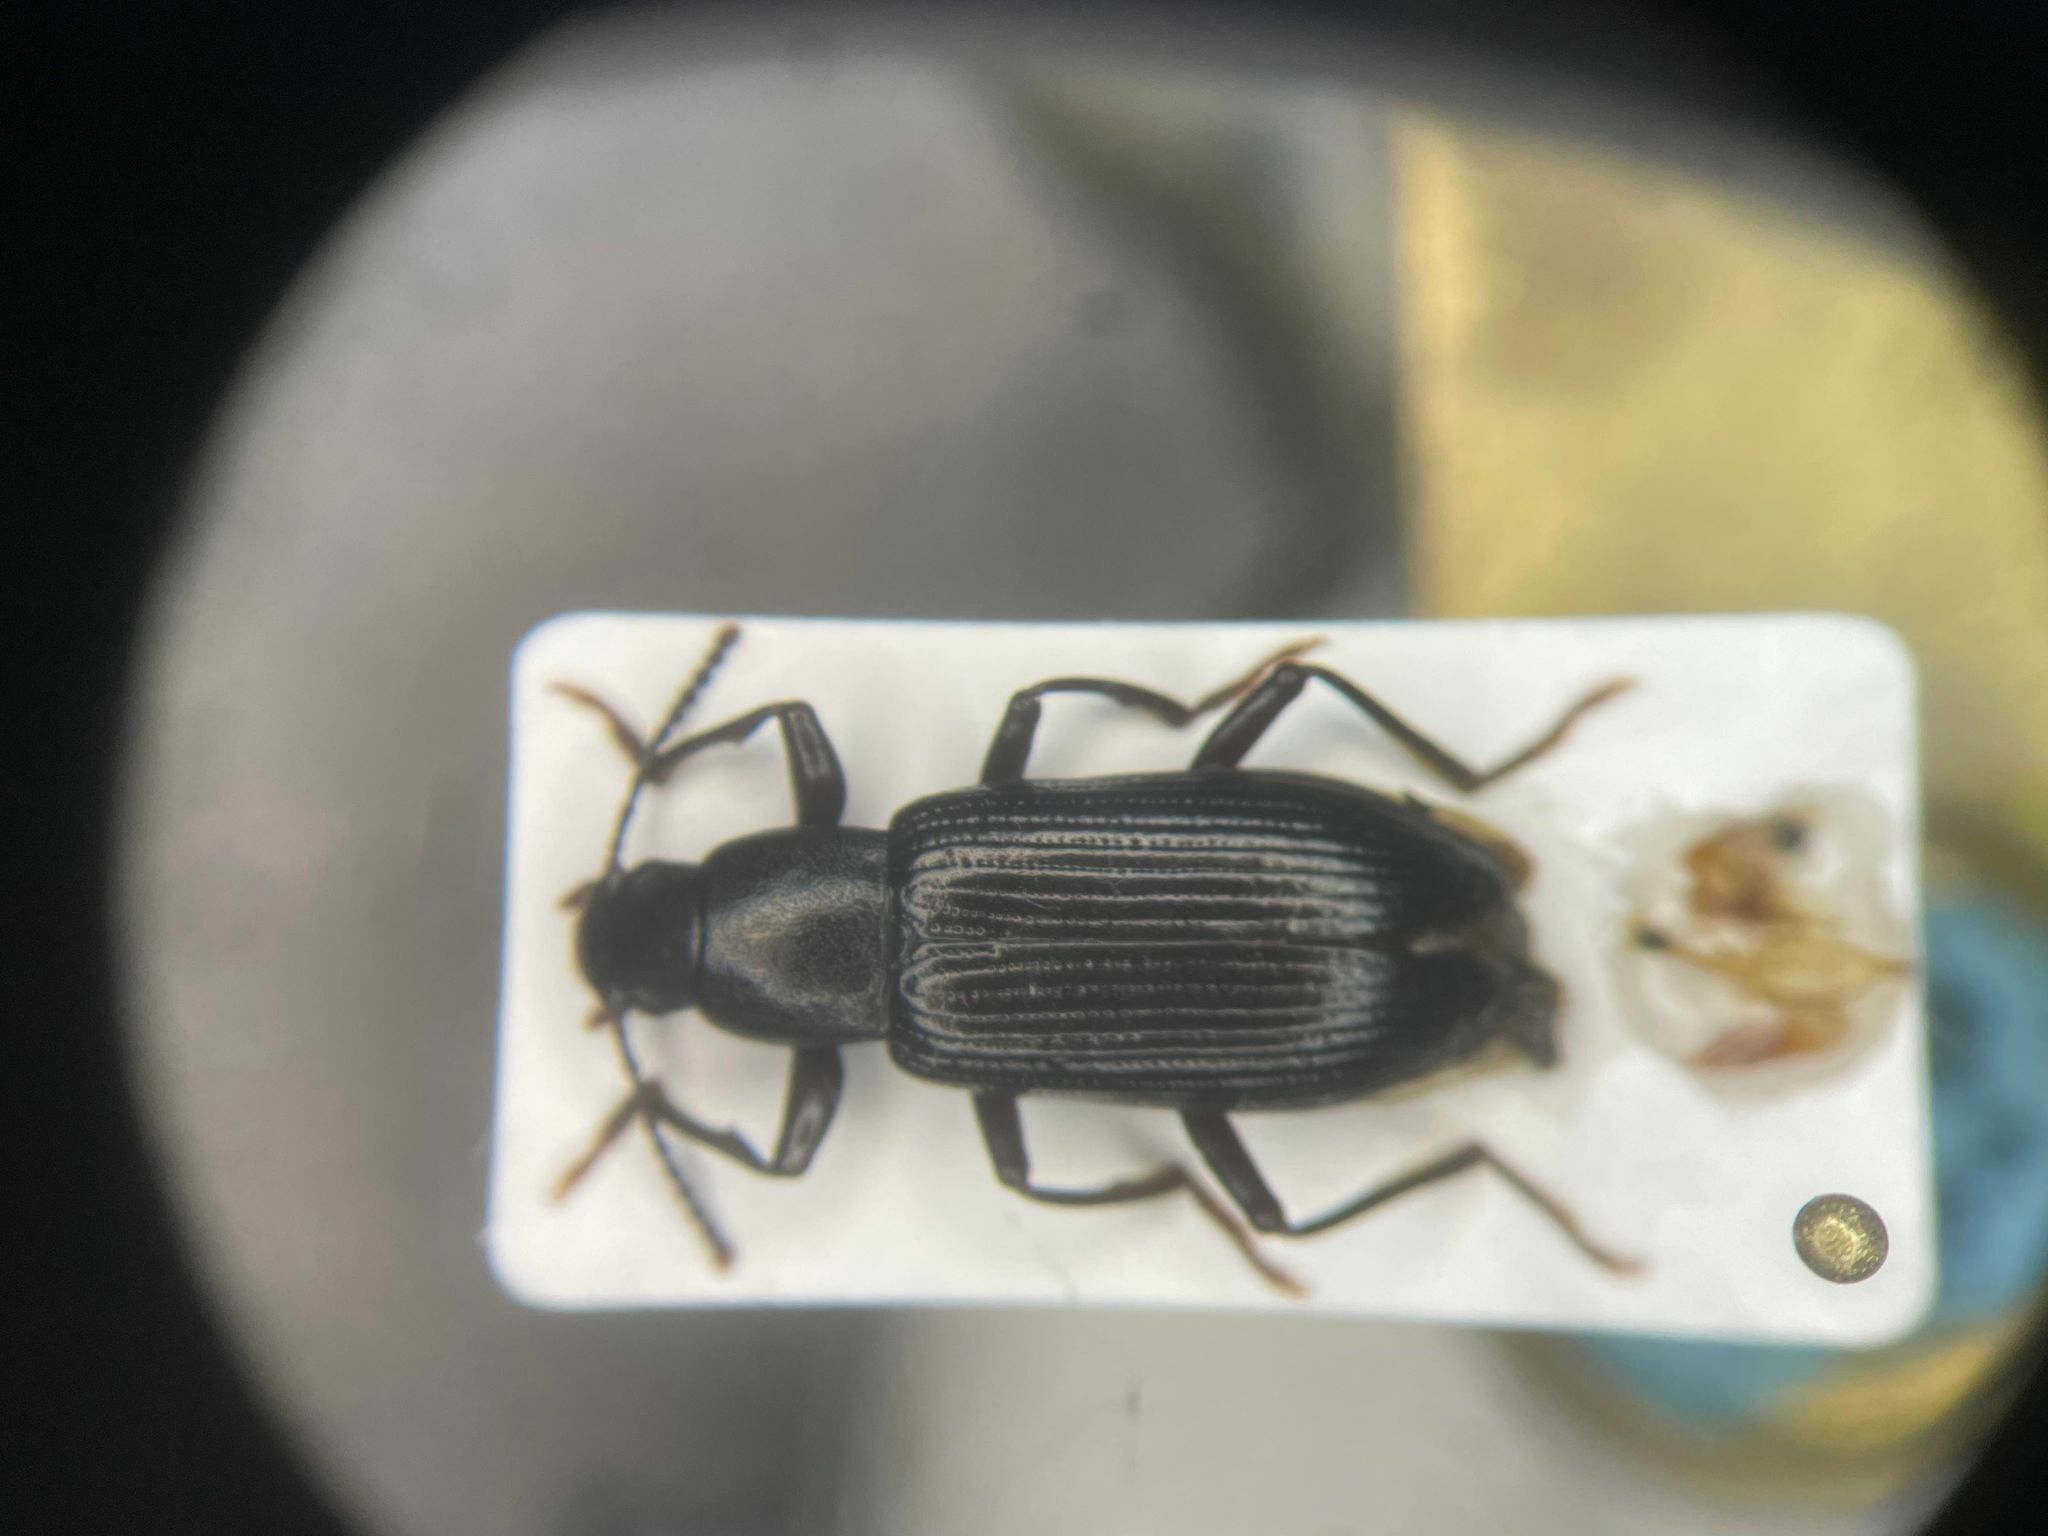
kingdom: Animalia
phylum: Arthropoda
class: Insecta
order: Coleoptera
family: Tenebrionidae
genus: Xylopinus
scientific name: Xylopinus saperdoides
